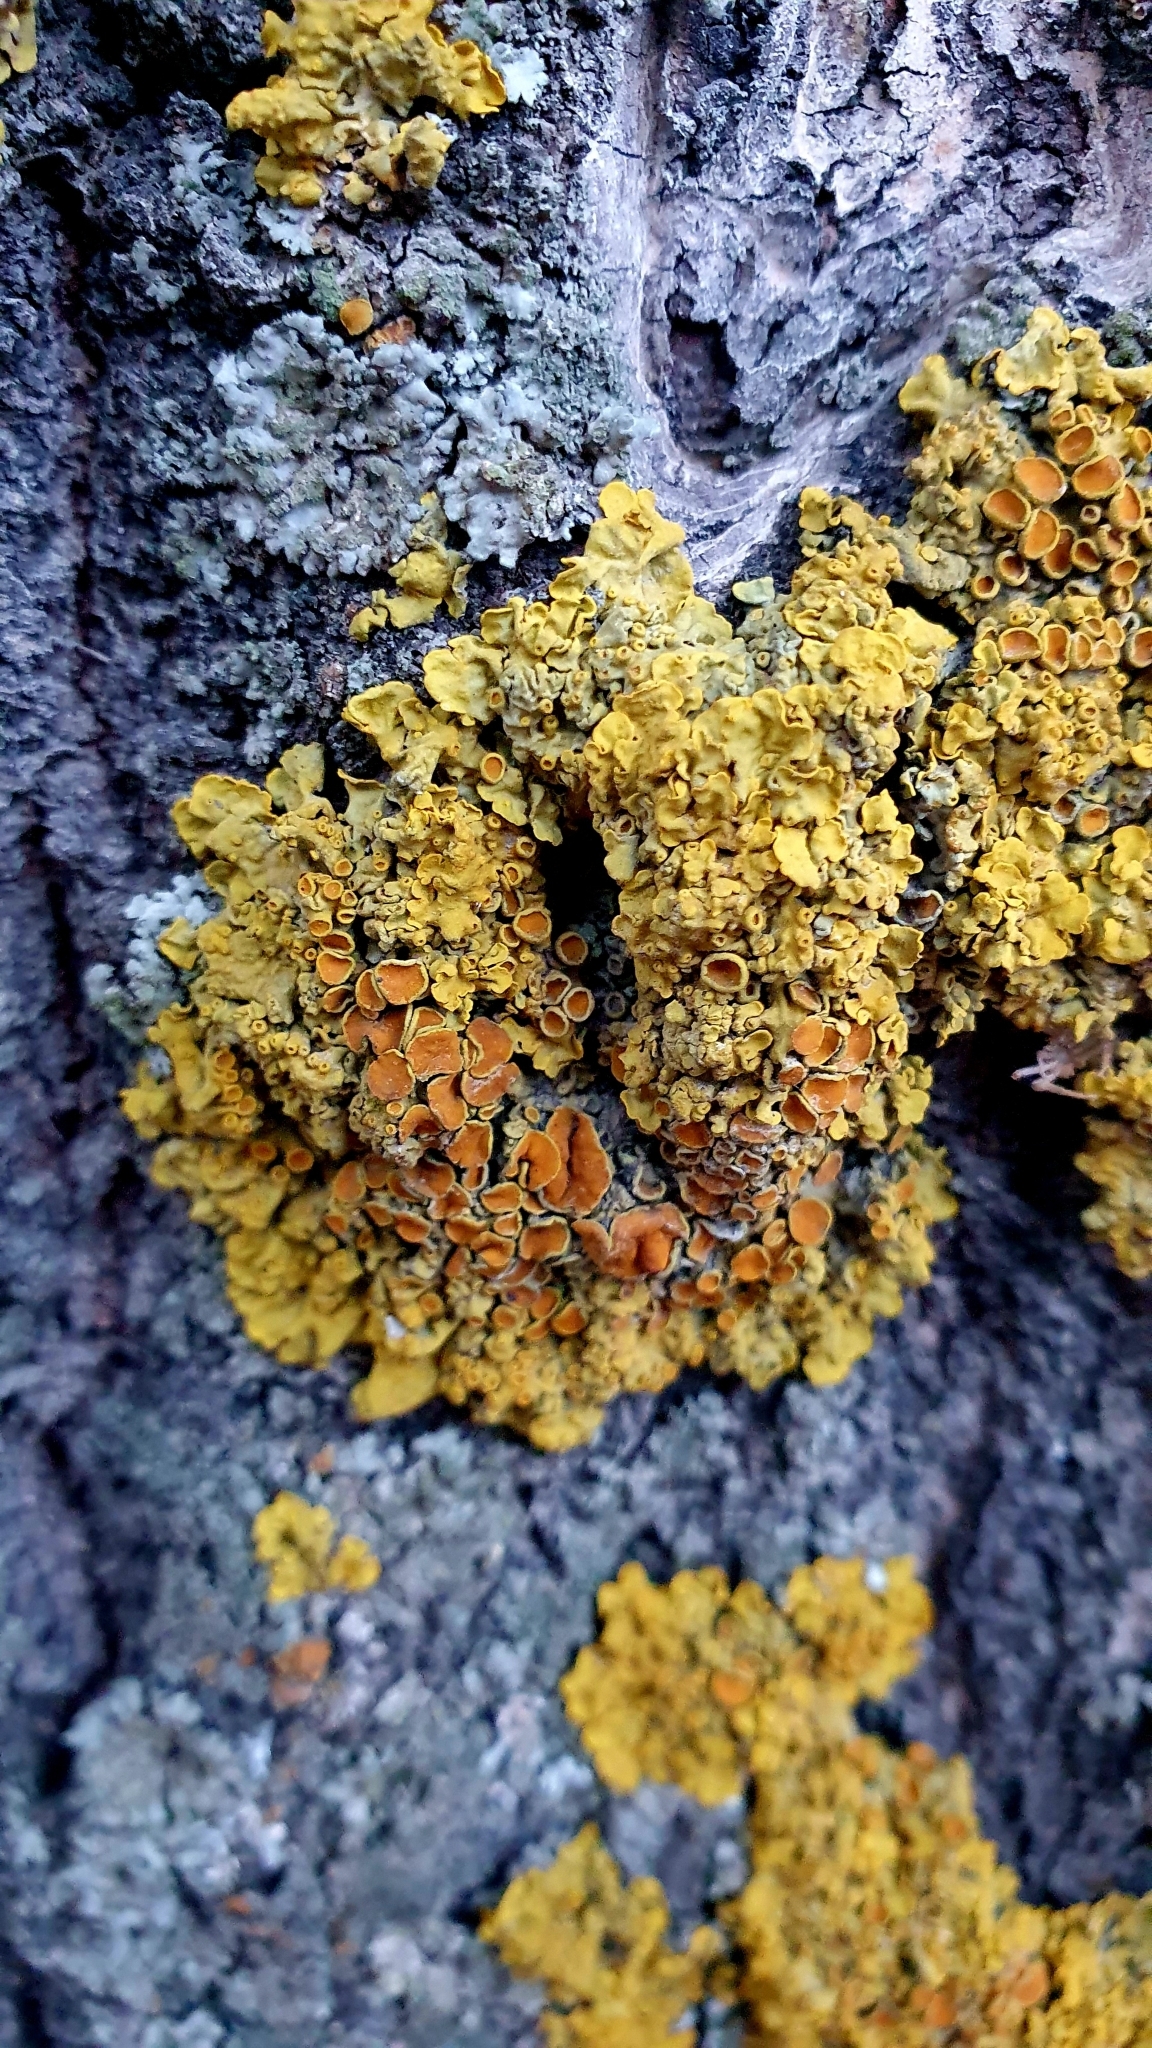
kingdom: Fungi
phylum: Ascomycota
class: Lecanoromycetes
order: Teloschistales
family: Teloschistaceae
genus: Xanthoria
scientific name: Xanthoria parietina
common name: Common orange lichen
